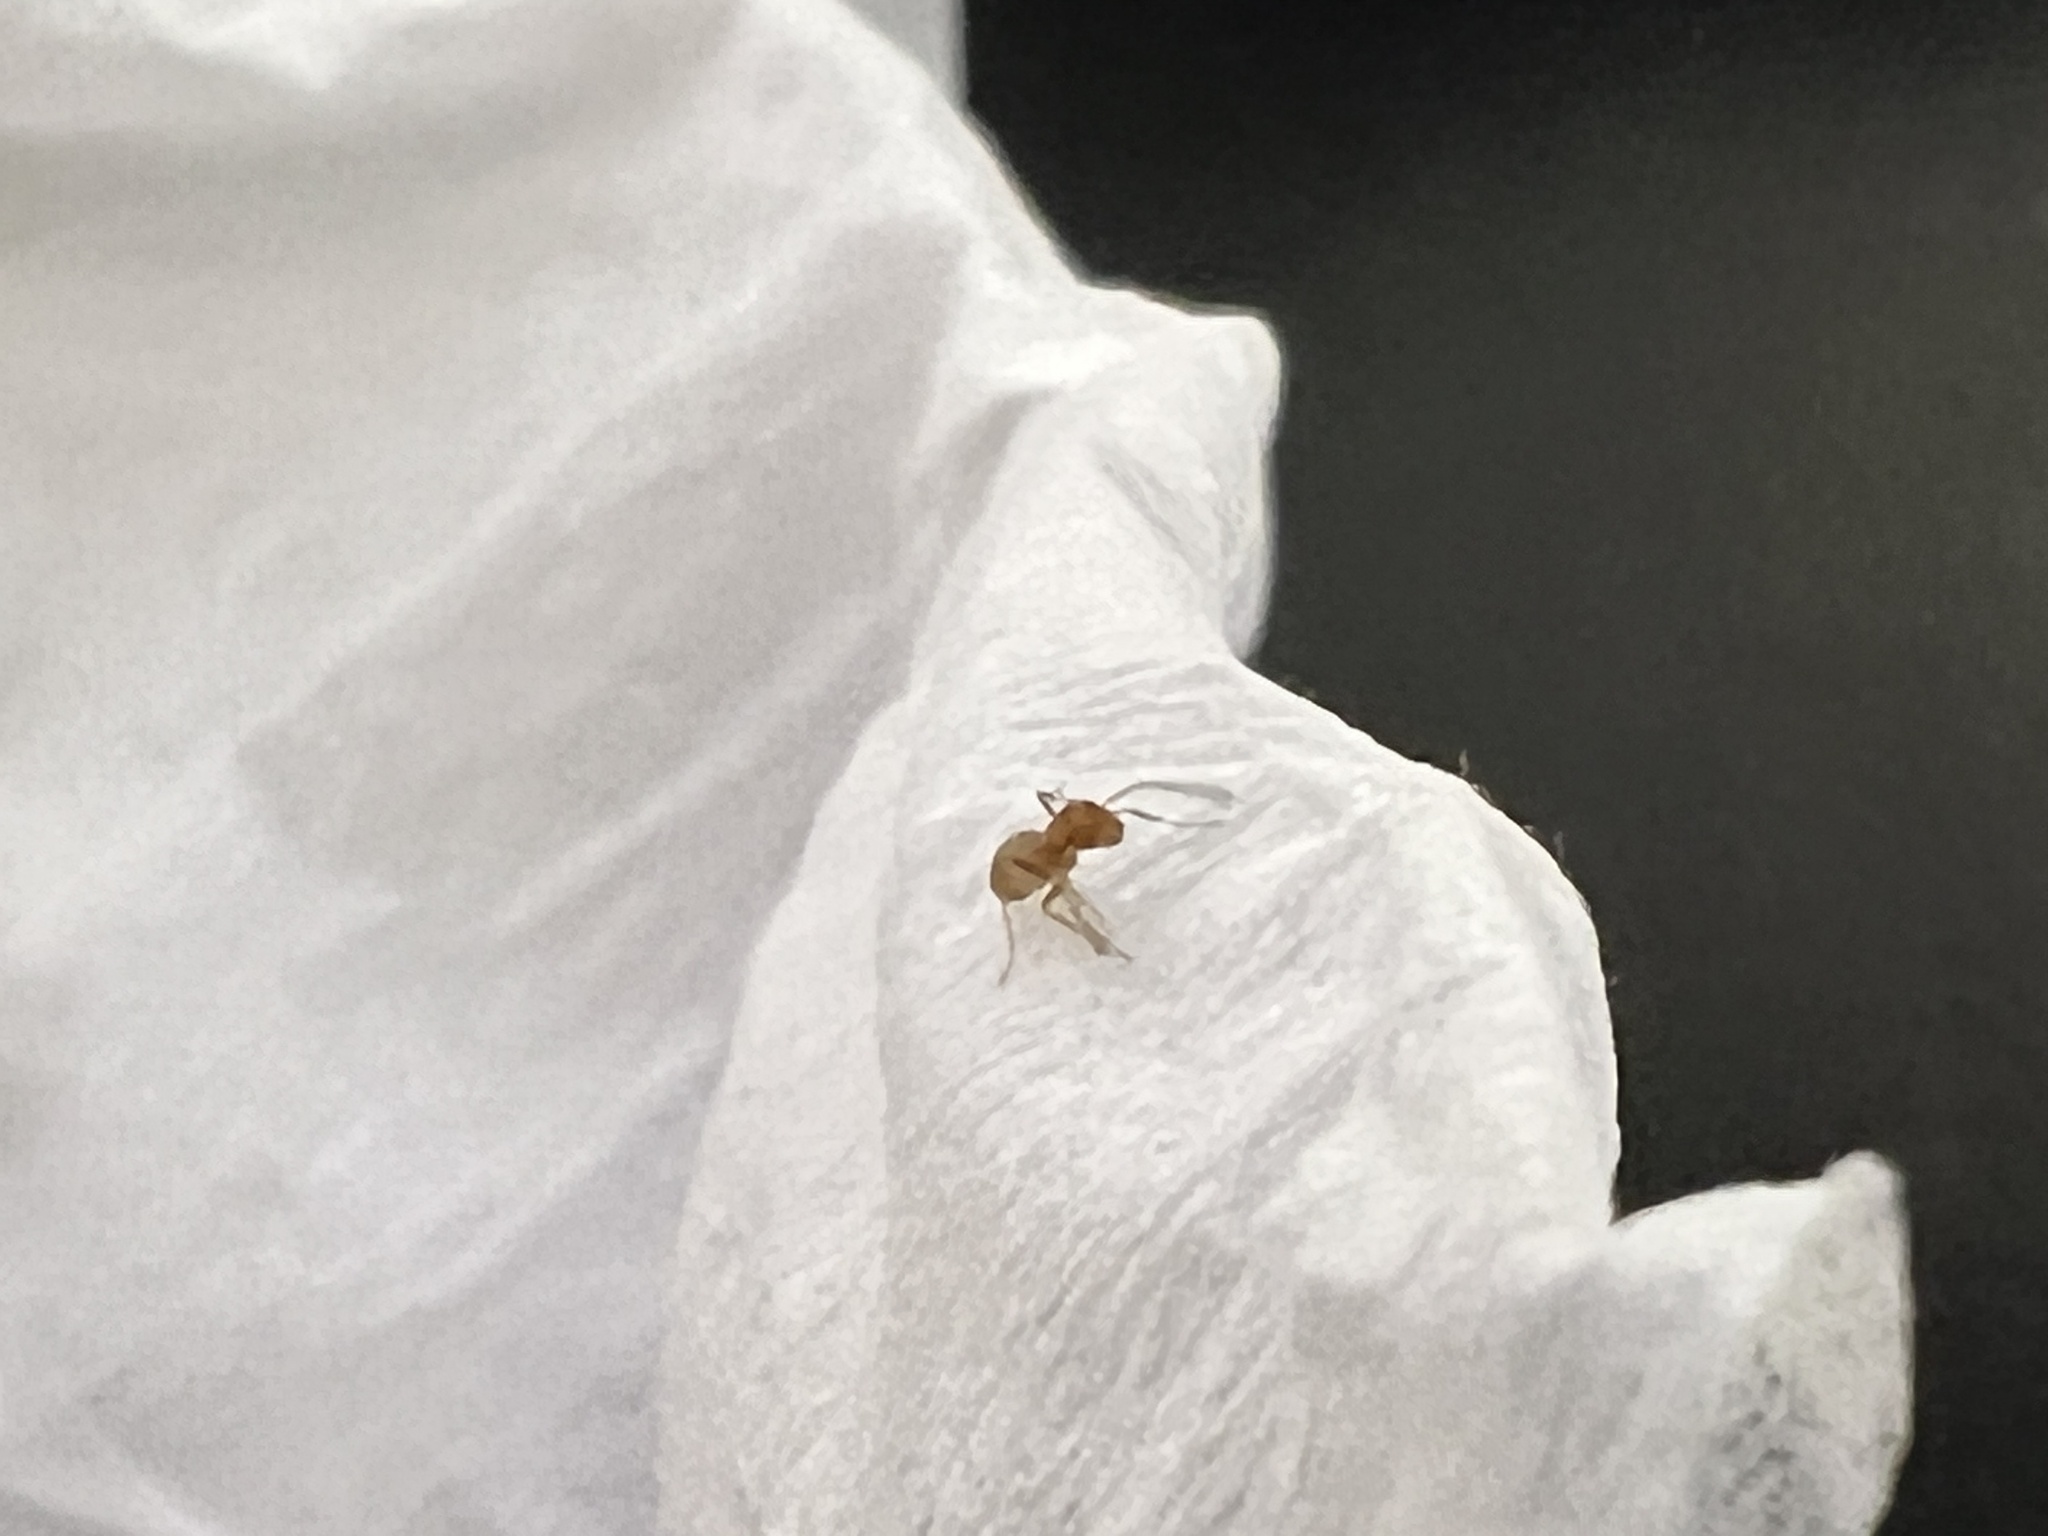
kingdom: Animalia
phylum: Arthropoda
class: Insecta
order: Hymenoptera
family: Formicidae
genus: Dorymyrmex
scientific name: Dorymyrmex flavus
